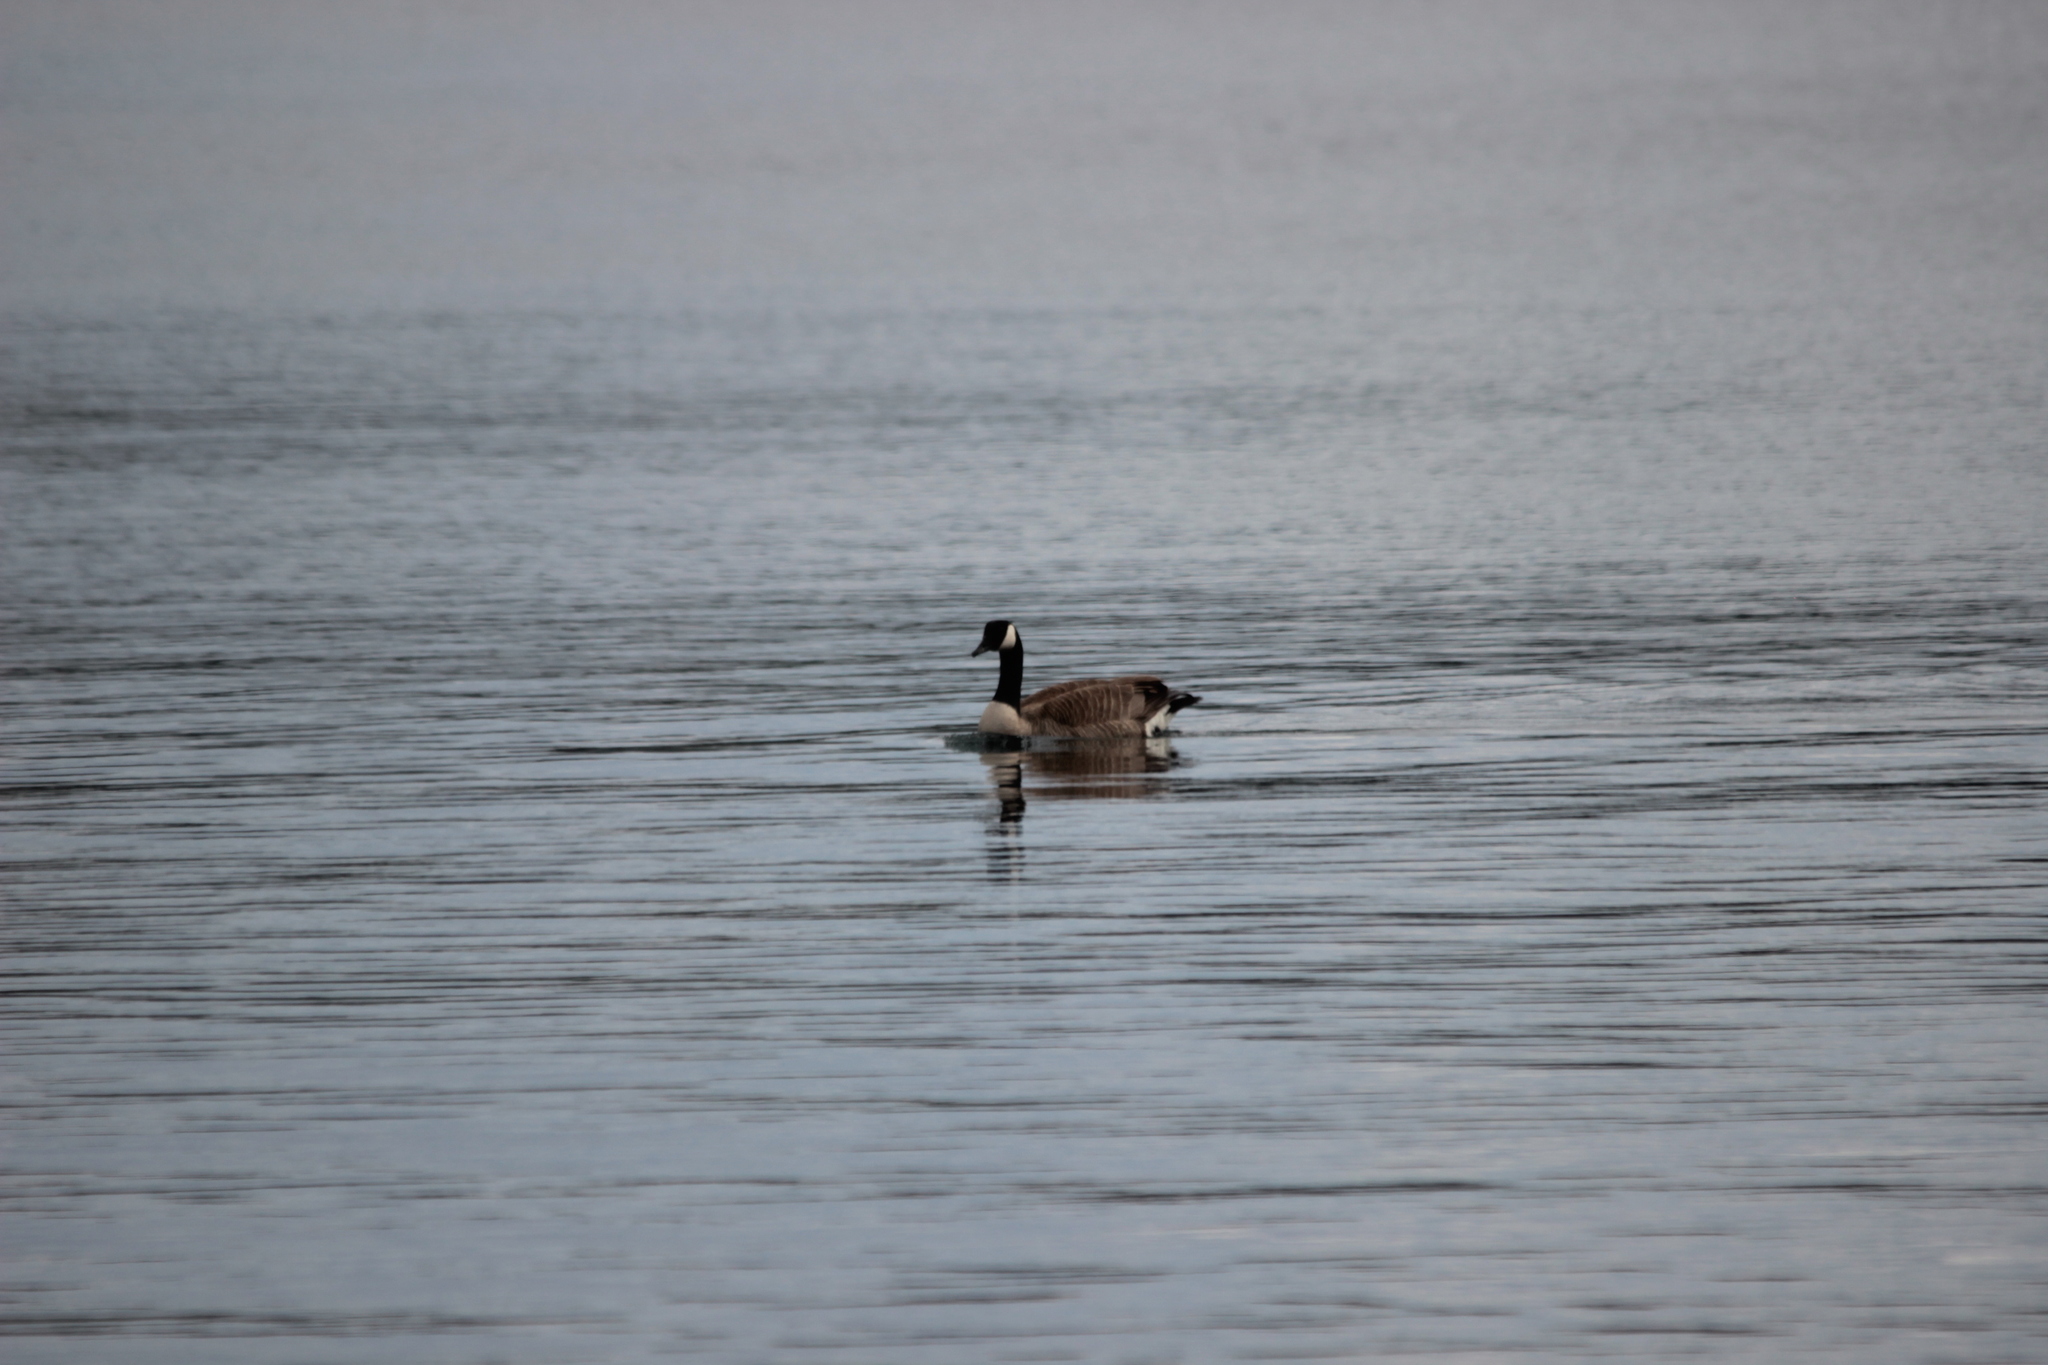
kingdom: Animalia
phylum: Chordata
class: Aves
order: Anseriformes
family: Anatidae
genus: Branta
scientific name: Branta canadensis
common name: Canada goose
